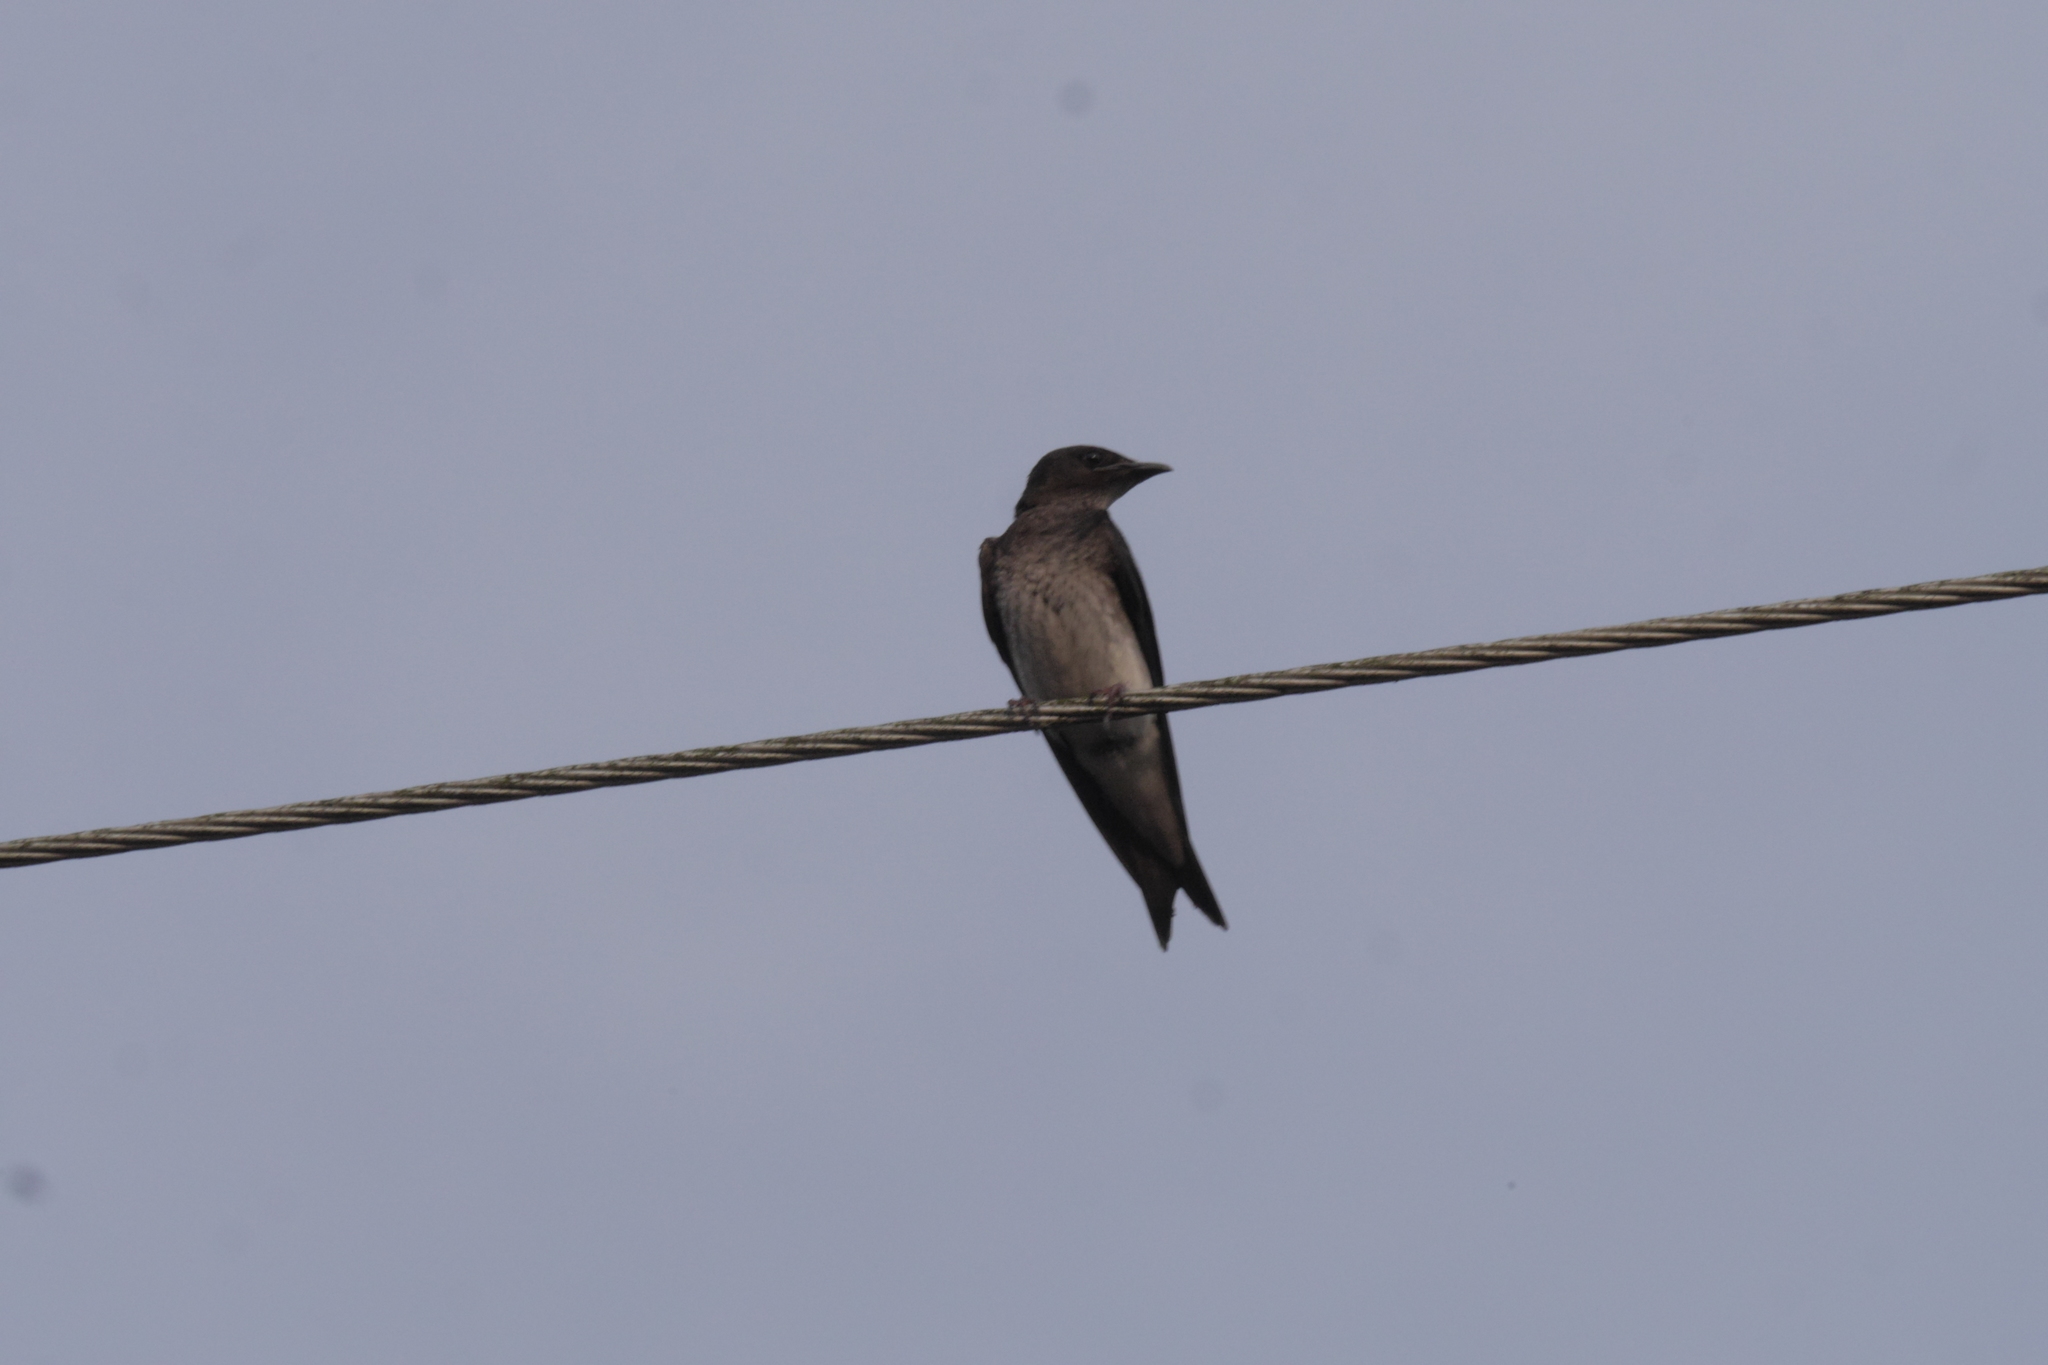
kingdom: Animalia
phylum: Chordata
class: Aves
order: Passeriformes
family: Hirundinidae
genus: Progne
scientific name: Progne chalybea
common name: Grey-breasted martin
